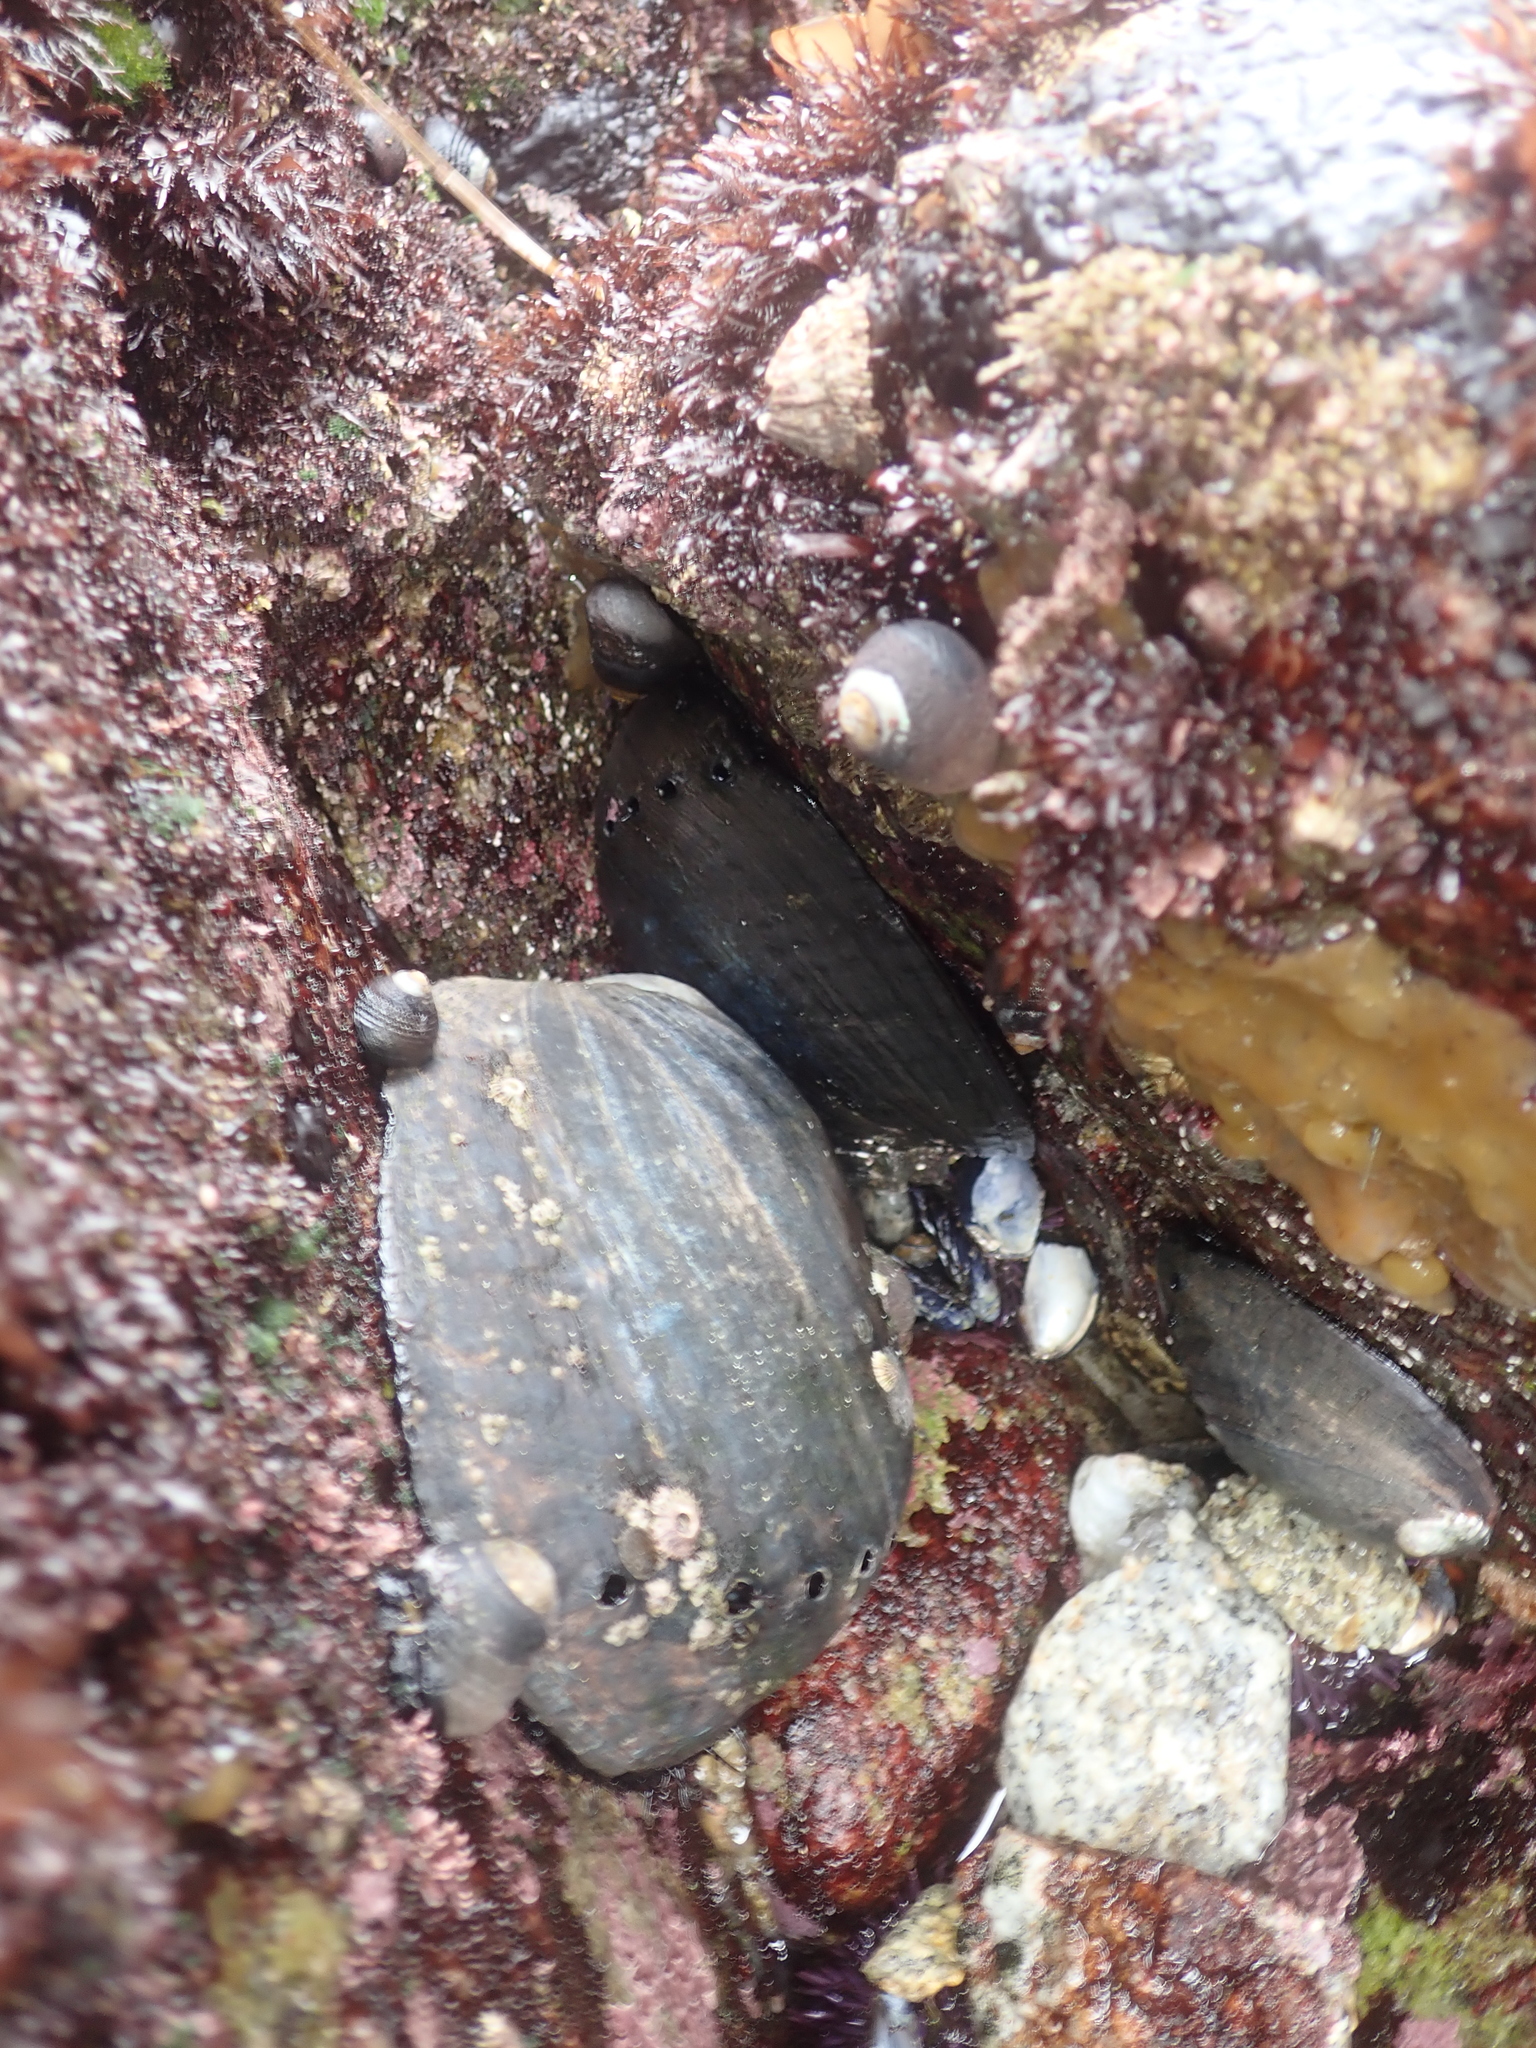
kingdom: Animalia
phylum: Mollusca
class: Gastropoda
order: Lepetellida
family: Haliotidae
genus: Haliotis
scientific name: Haliotis cracherodii
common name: Black abalone
